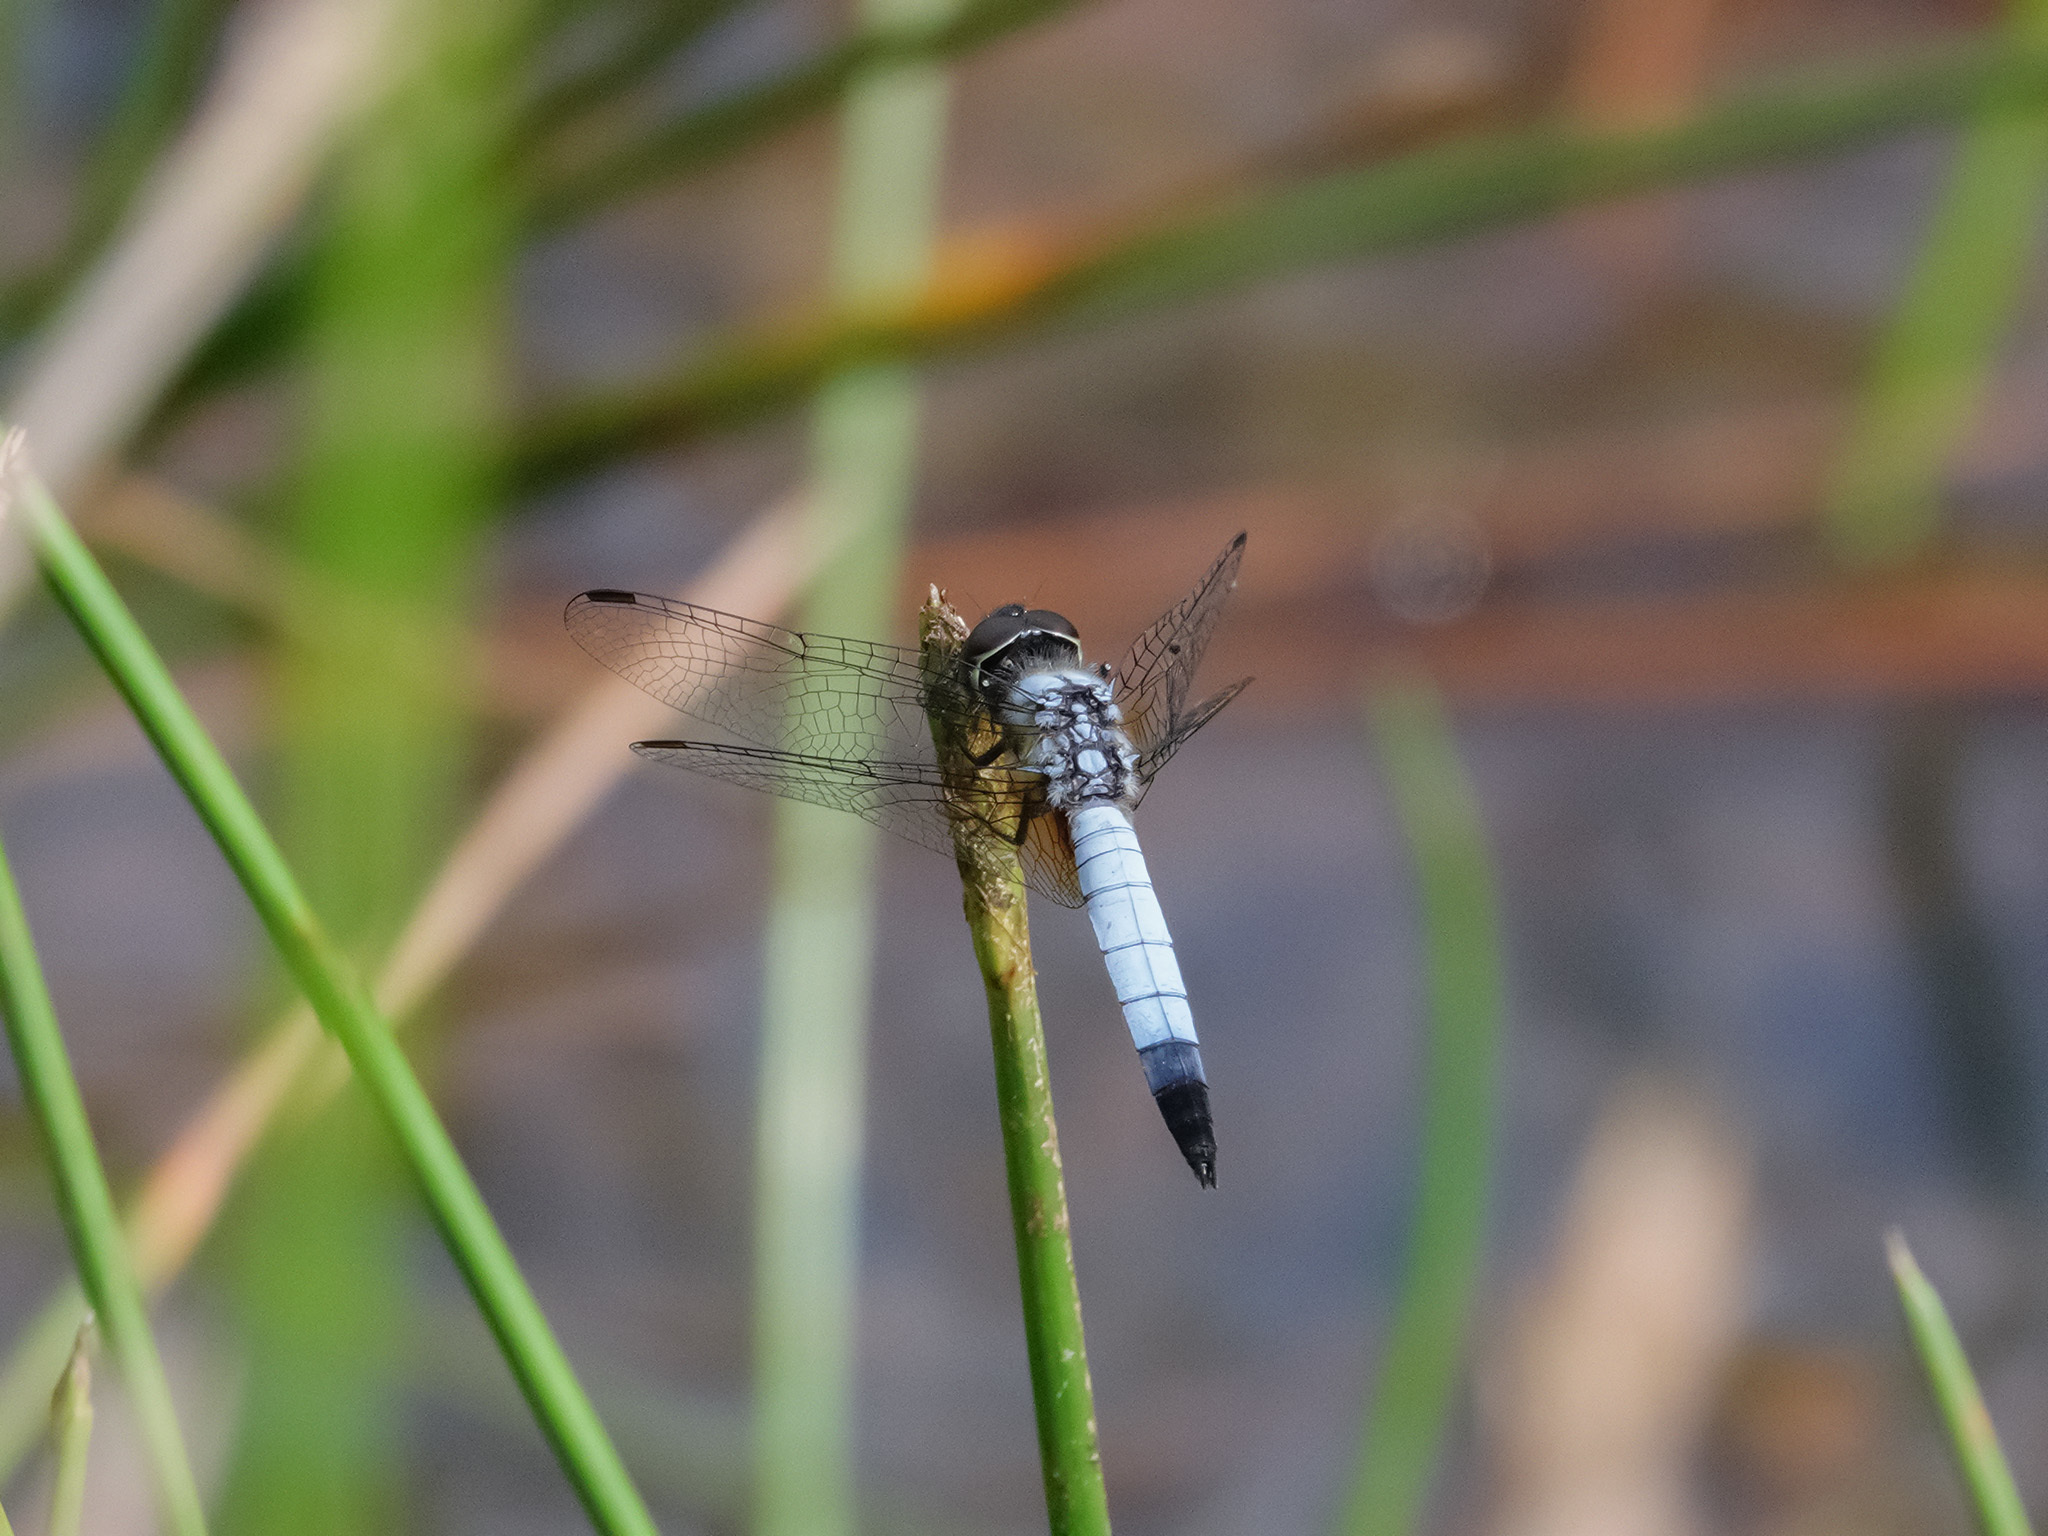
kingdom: Animalia
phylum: Arthropoda
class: Insecta
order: Odonata
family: Libellulidae
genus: Aethriamanta
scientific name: Aethriamanta gracilis
